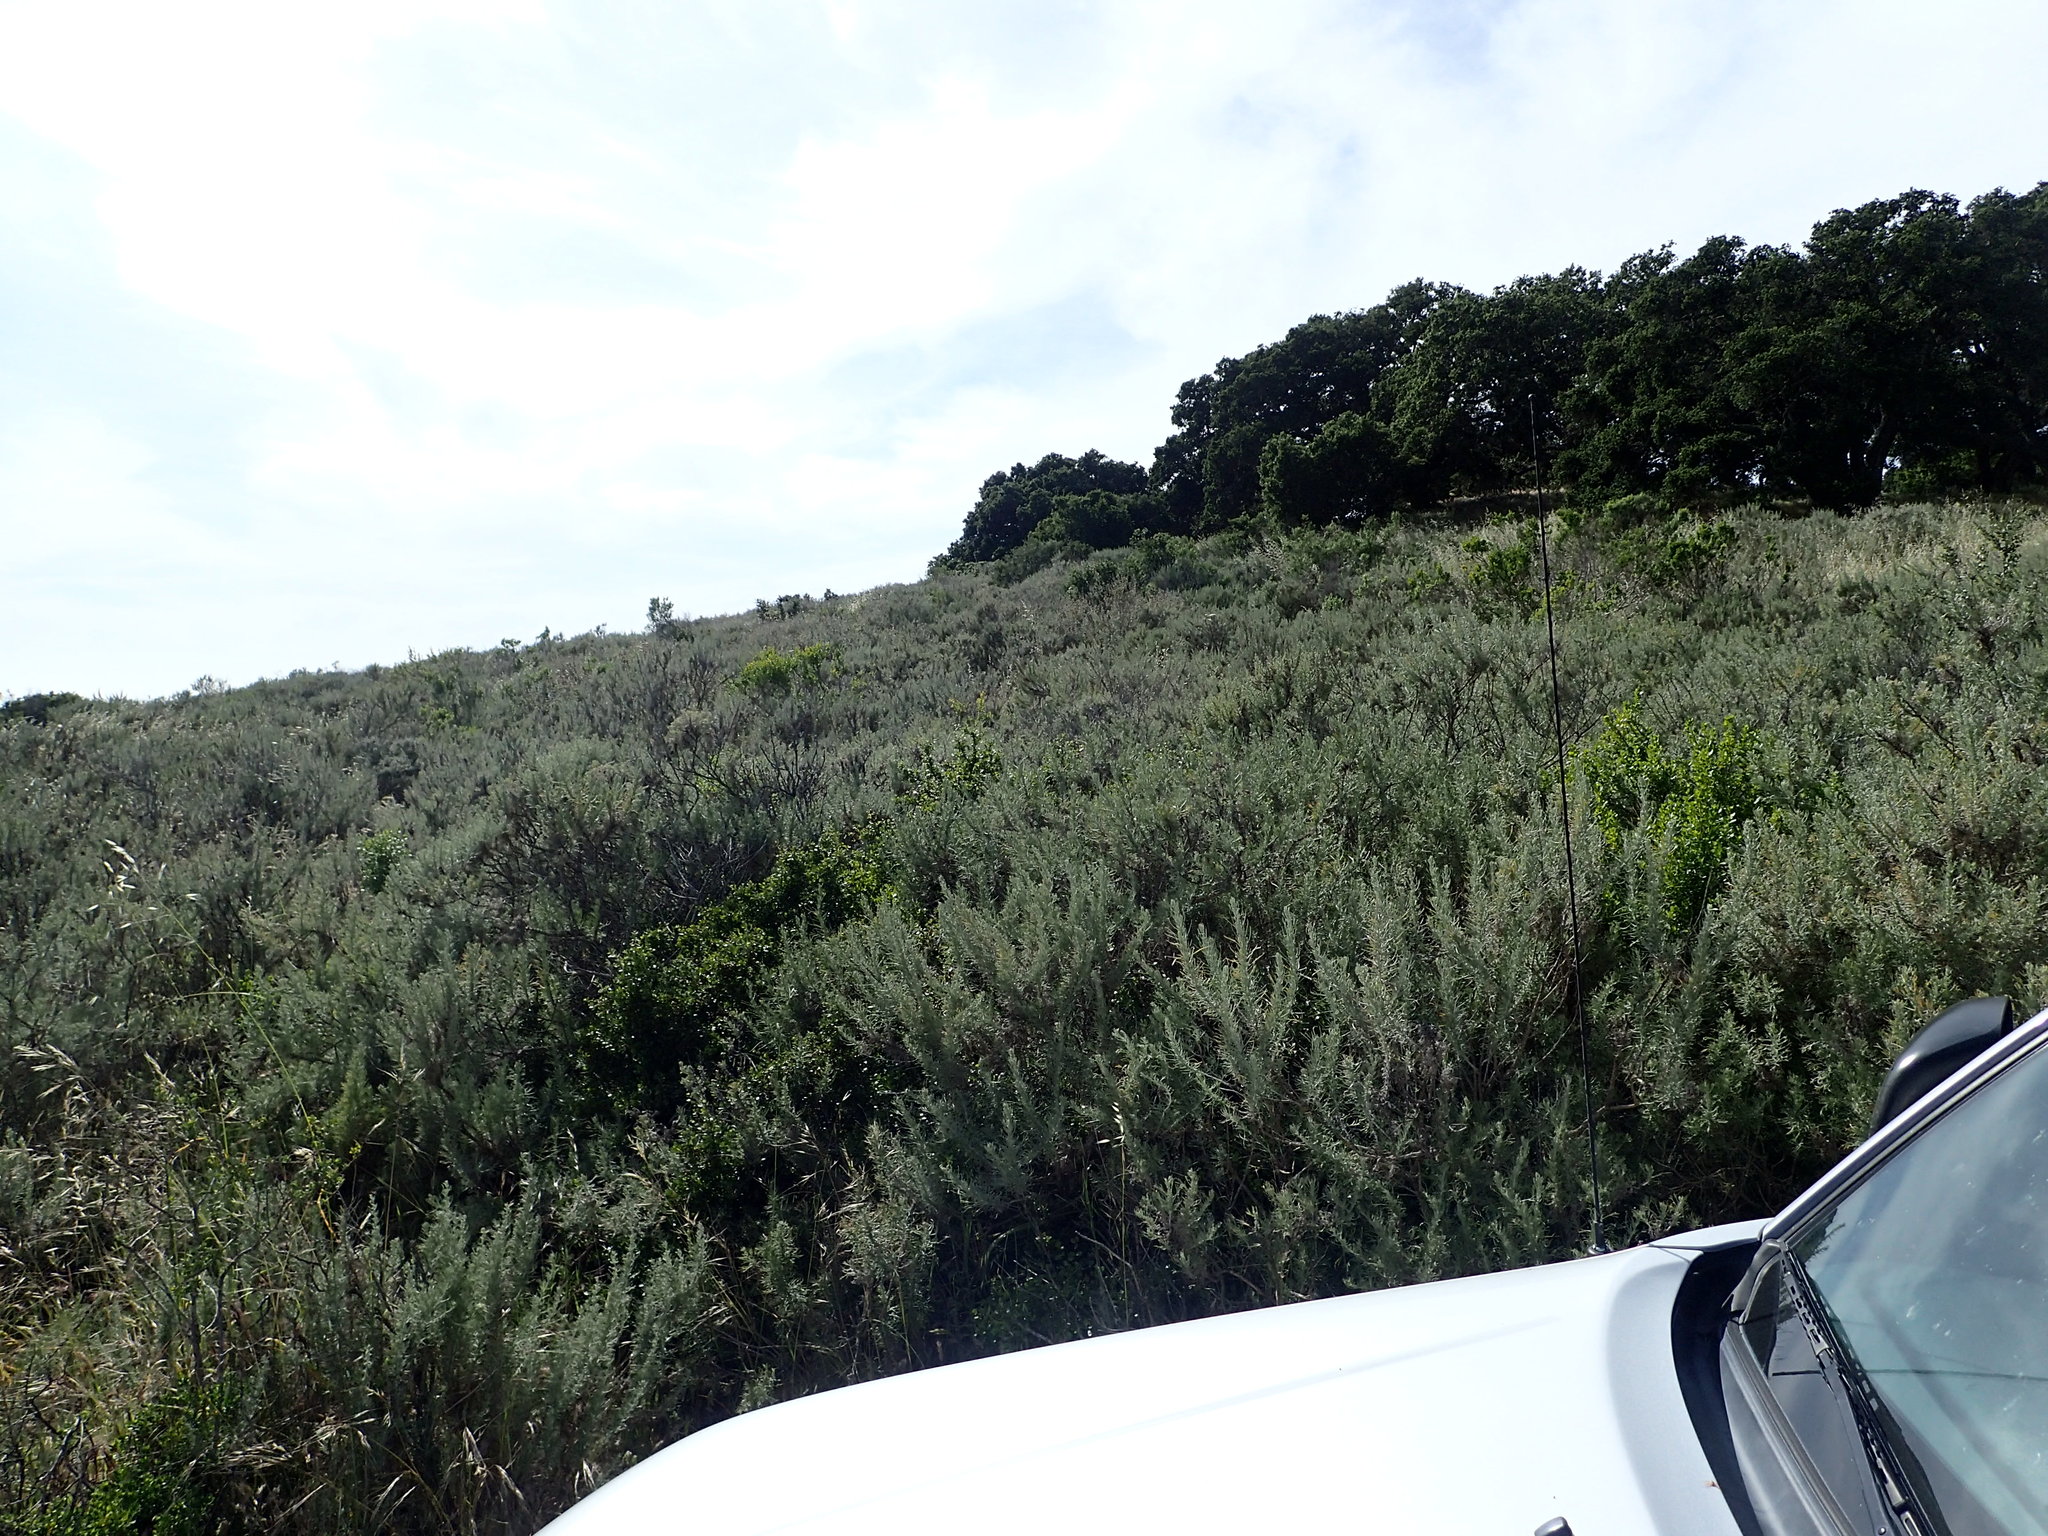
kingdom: Plantae
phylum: Tracheophyta
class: Magnoliopsida
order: Asterales
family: Asteraceae
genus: Artemisia
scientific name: Artemisia californica
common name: California sagebrush
